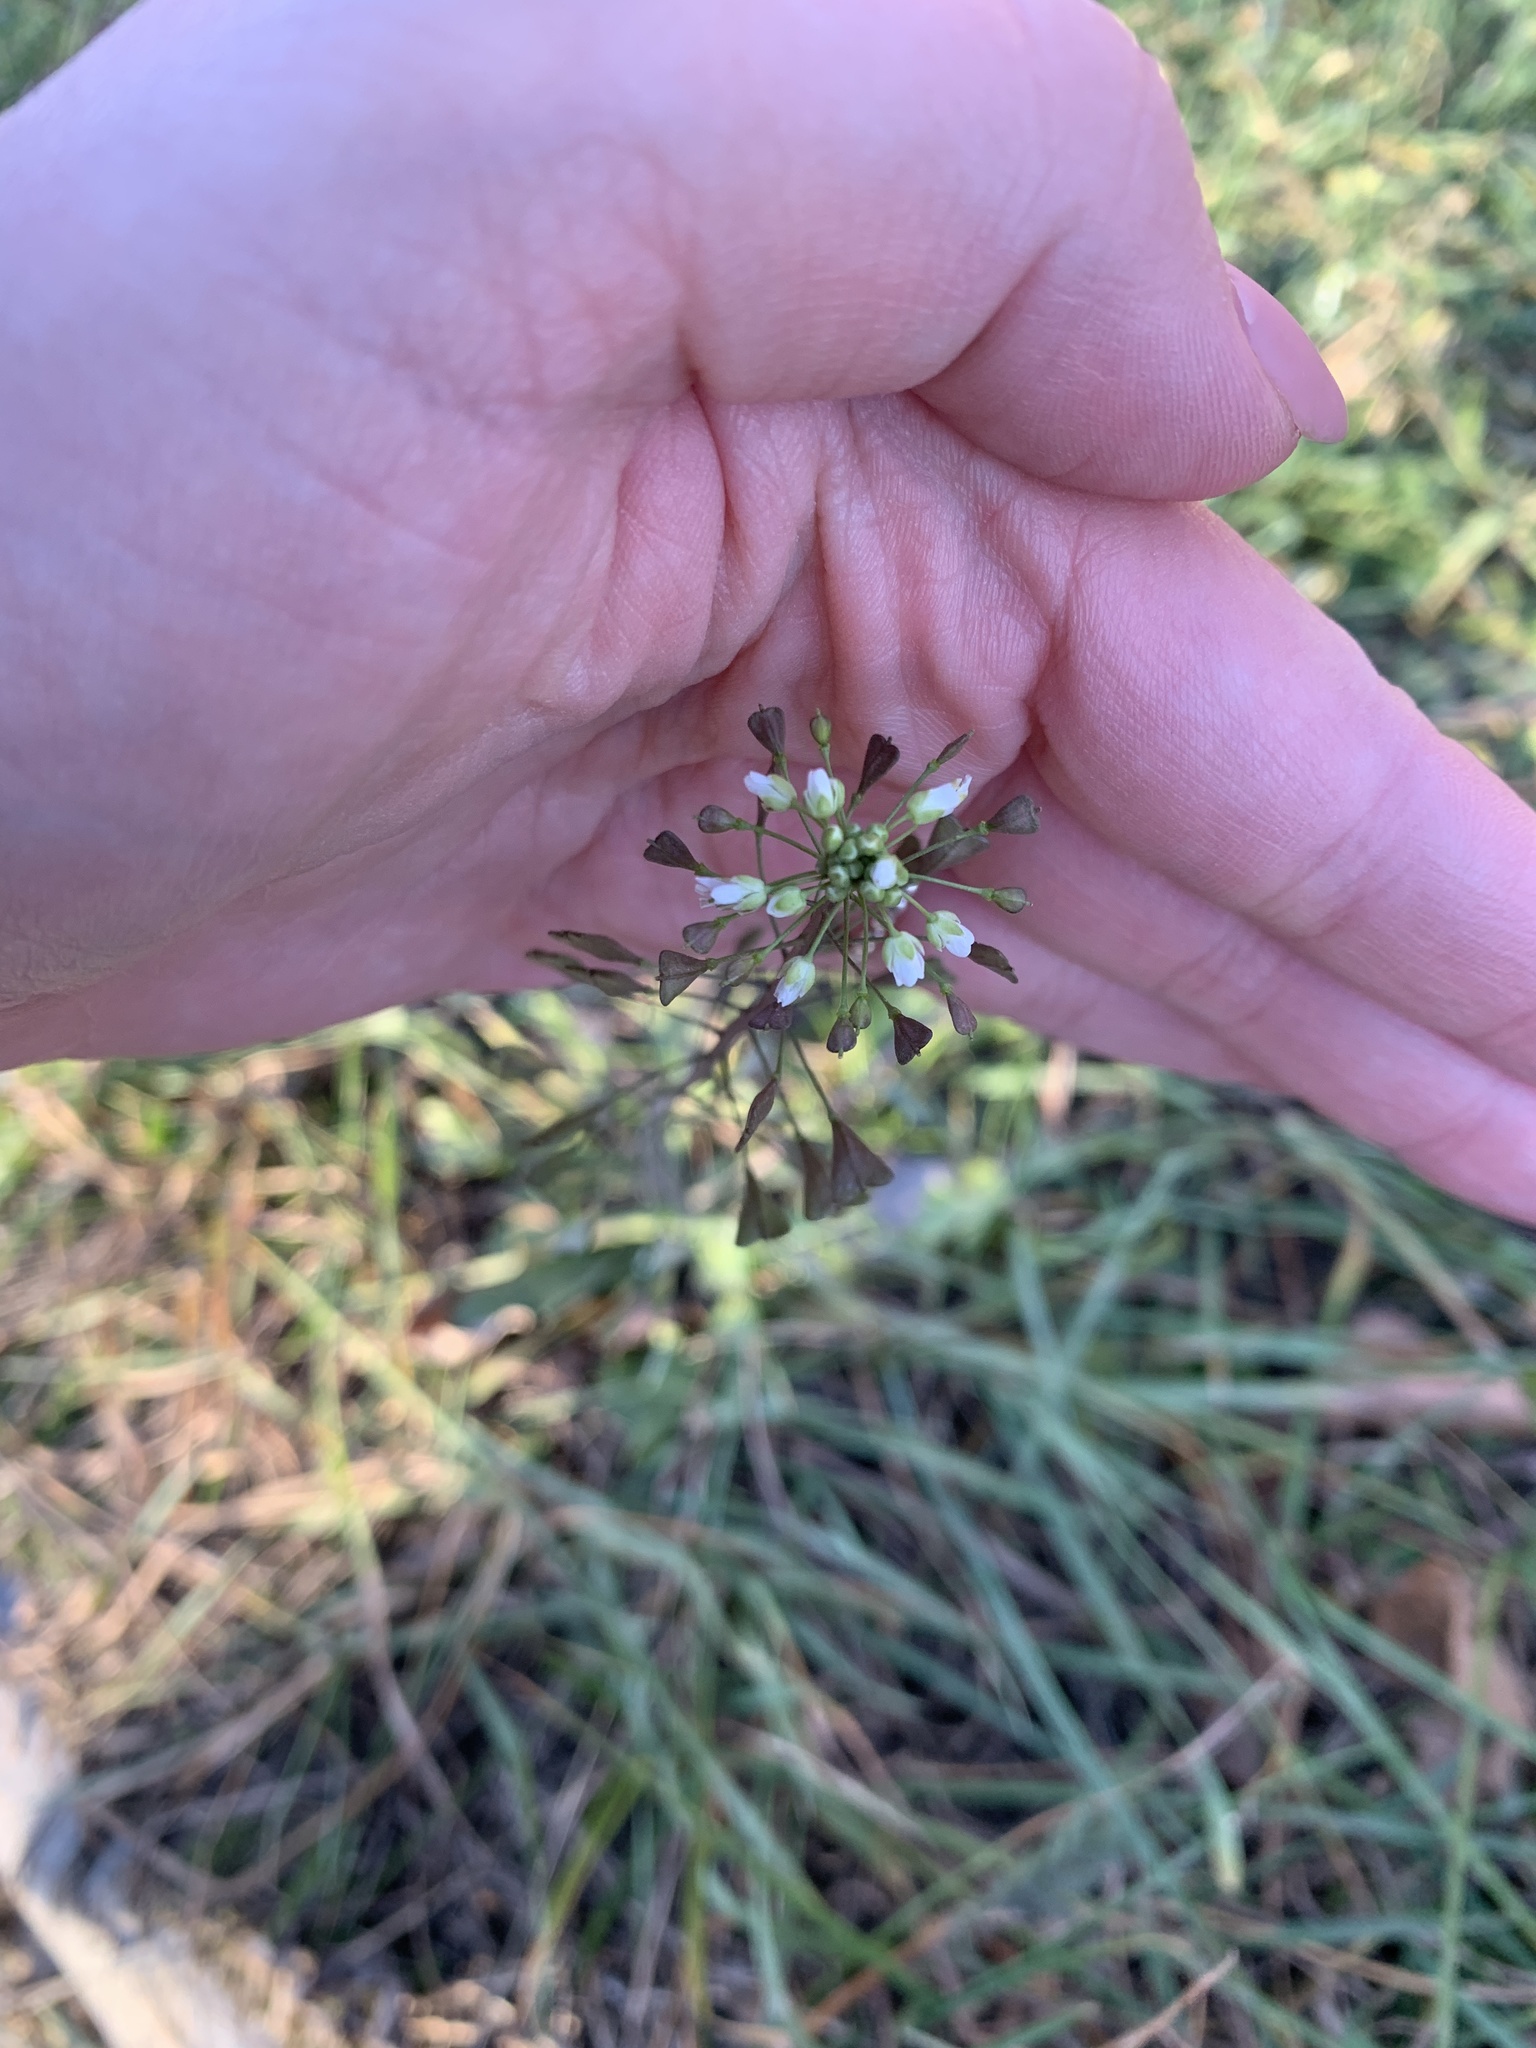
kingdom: Plantae
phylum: Tracheophyta
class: Magnoliopsida
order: Brassicales
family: Brassicaceae
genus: Capsella
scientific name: Capsella bursa-pastoris
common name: Shepherd's purse
